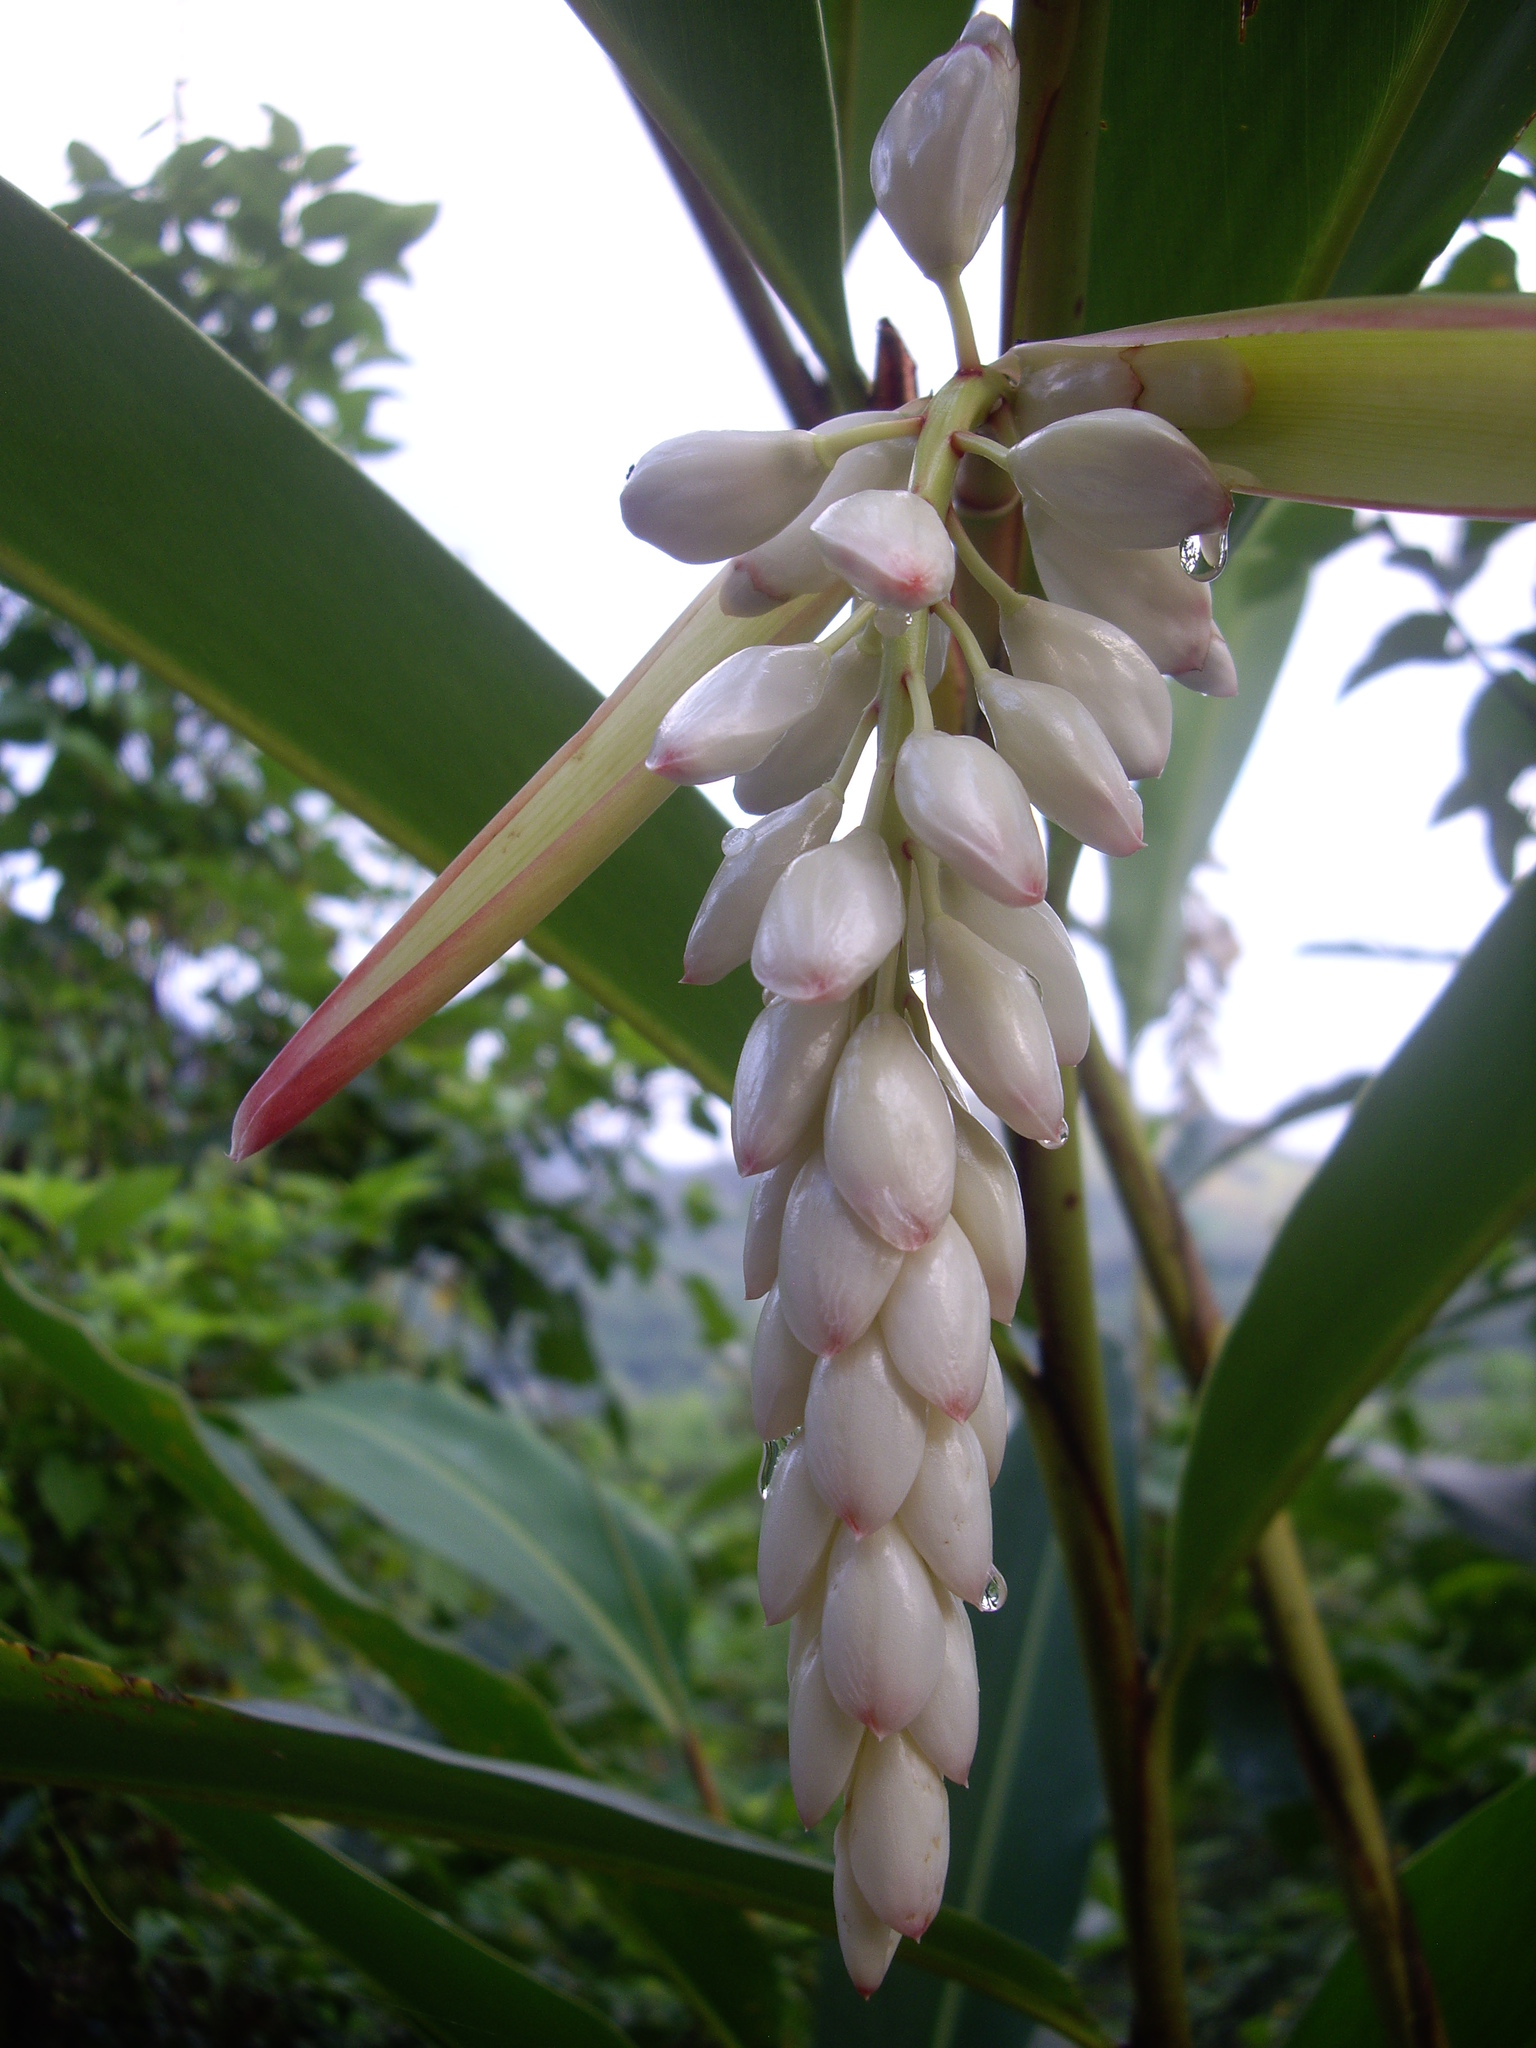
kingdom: Plantae
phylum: Tracheophyta
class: Liliopsida
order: Zingiberales
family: Zingiberaceae
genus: Alpinia
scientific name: Alpinia zerumbet
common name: Shellplant
